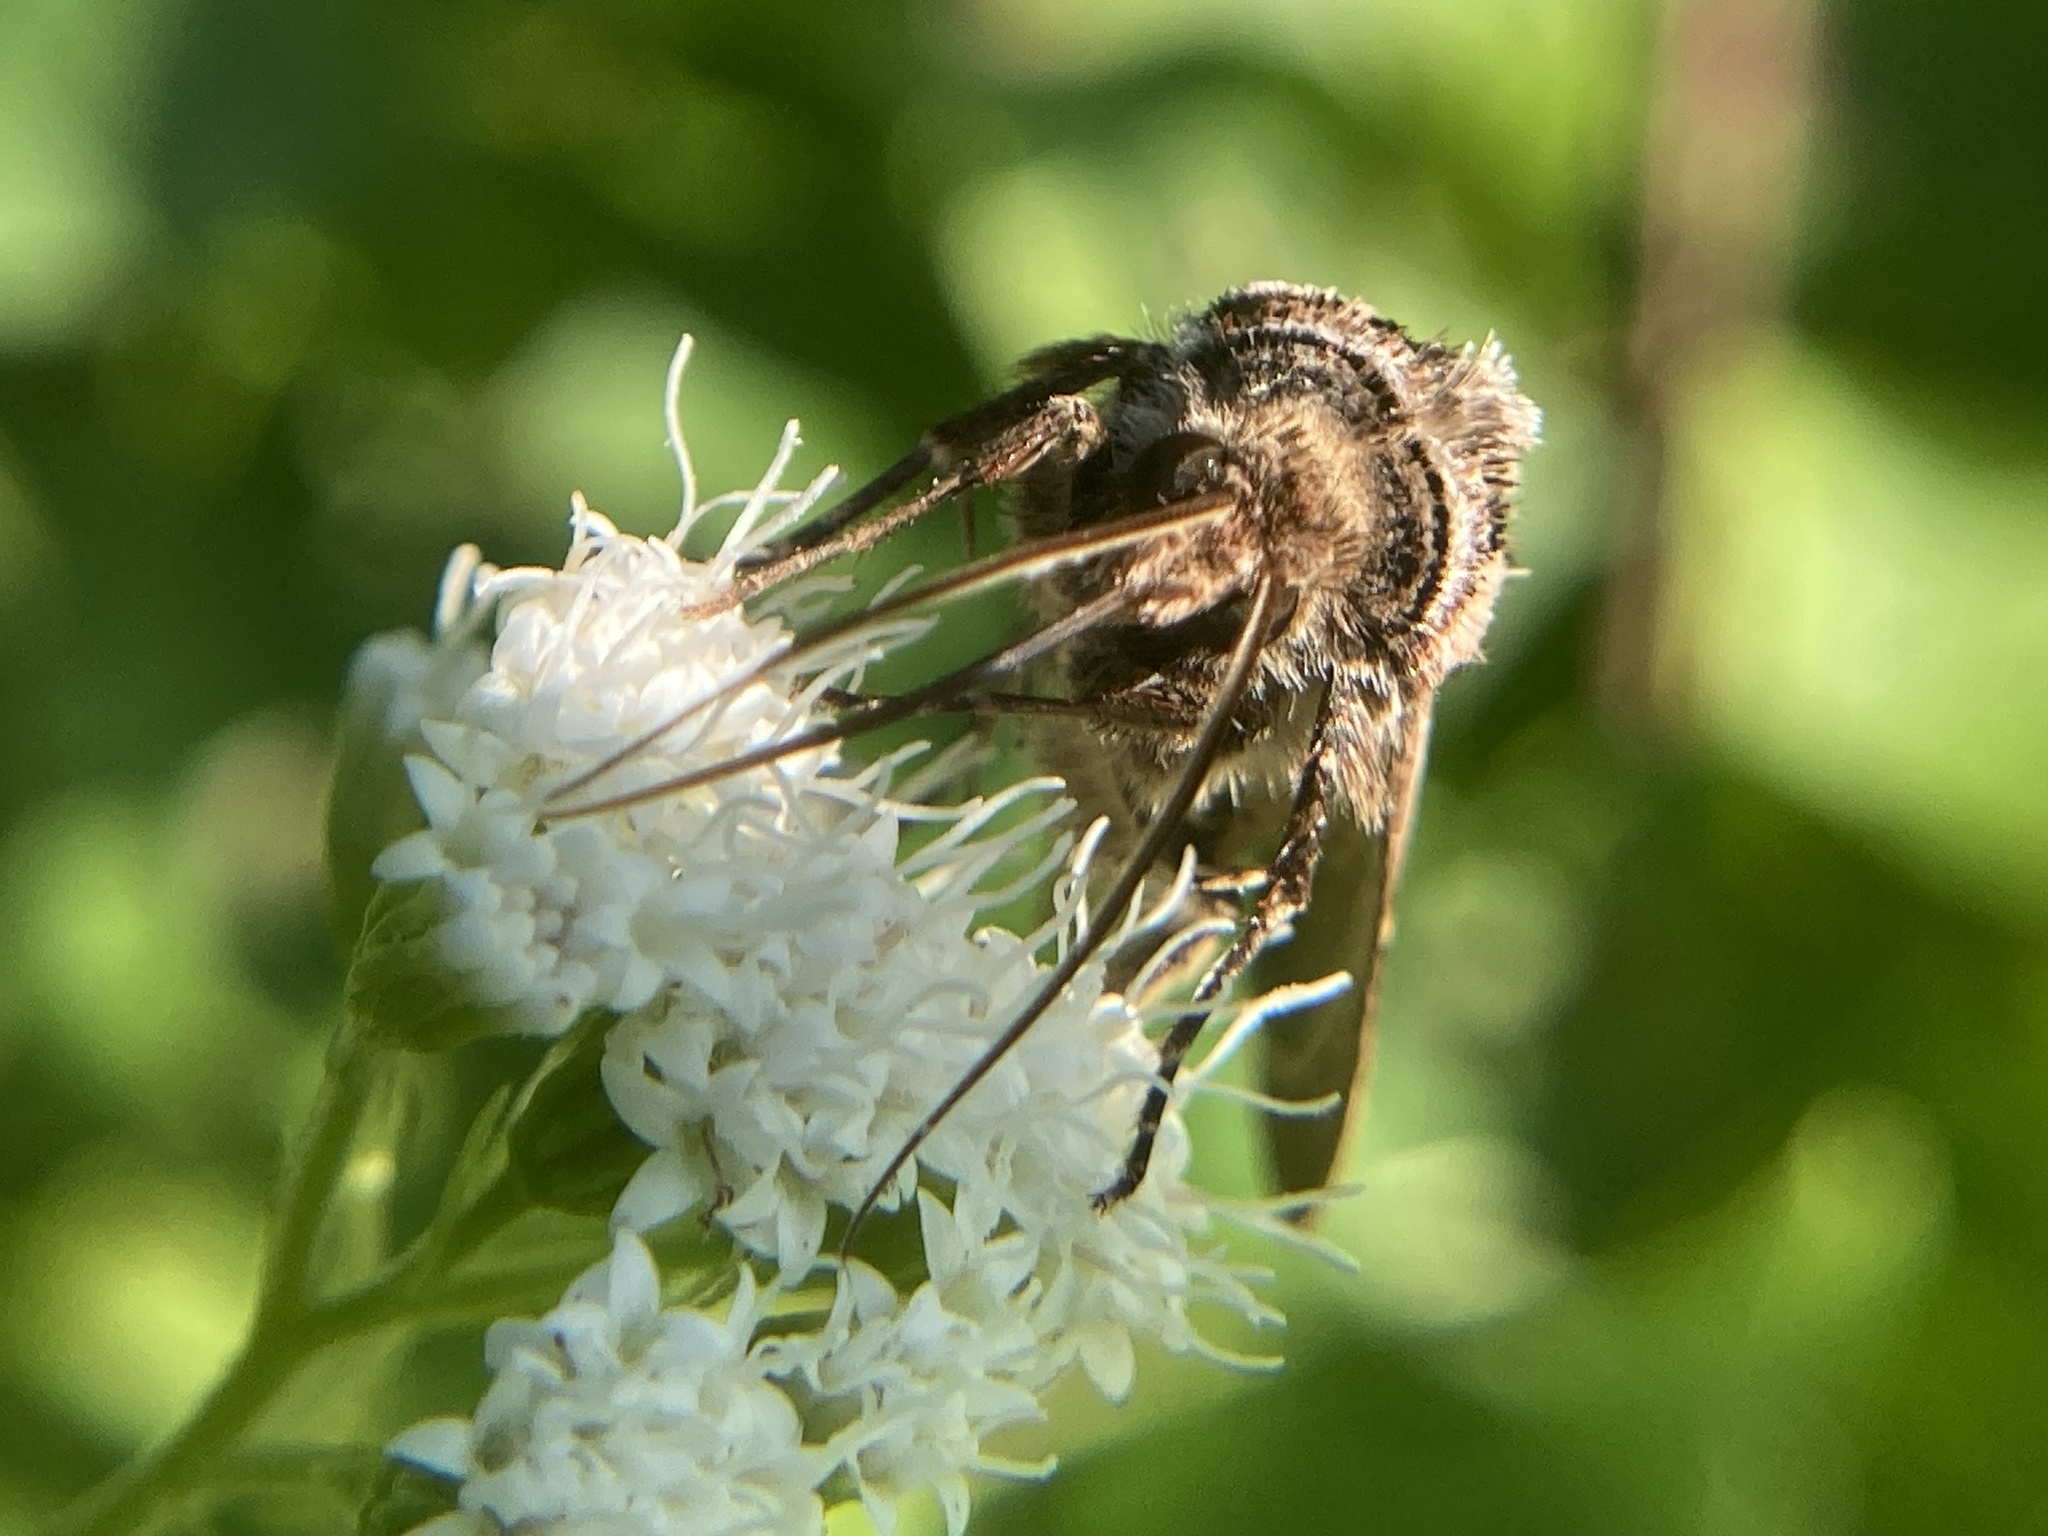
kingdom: Animalia
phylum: Arthropoda
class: Insecta
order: Lepidoptera
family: Noctuidae
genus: Feltia
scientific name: Feltia jaculifera
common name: Dingy cutworm moth
